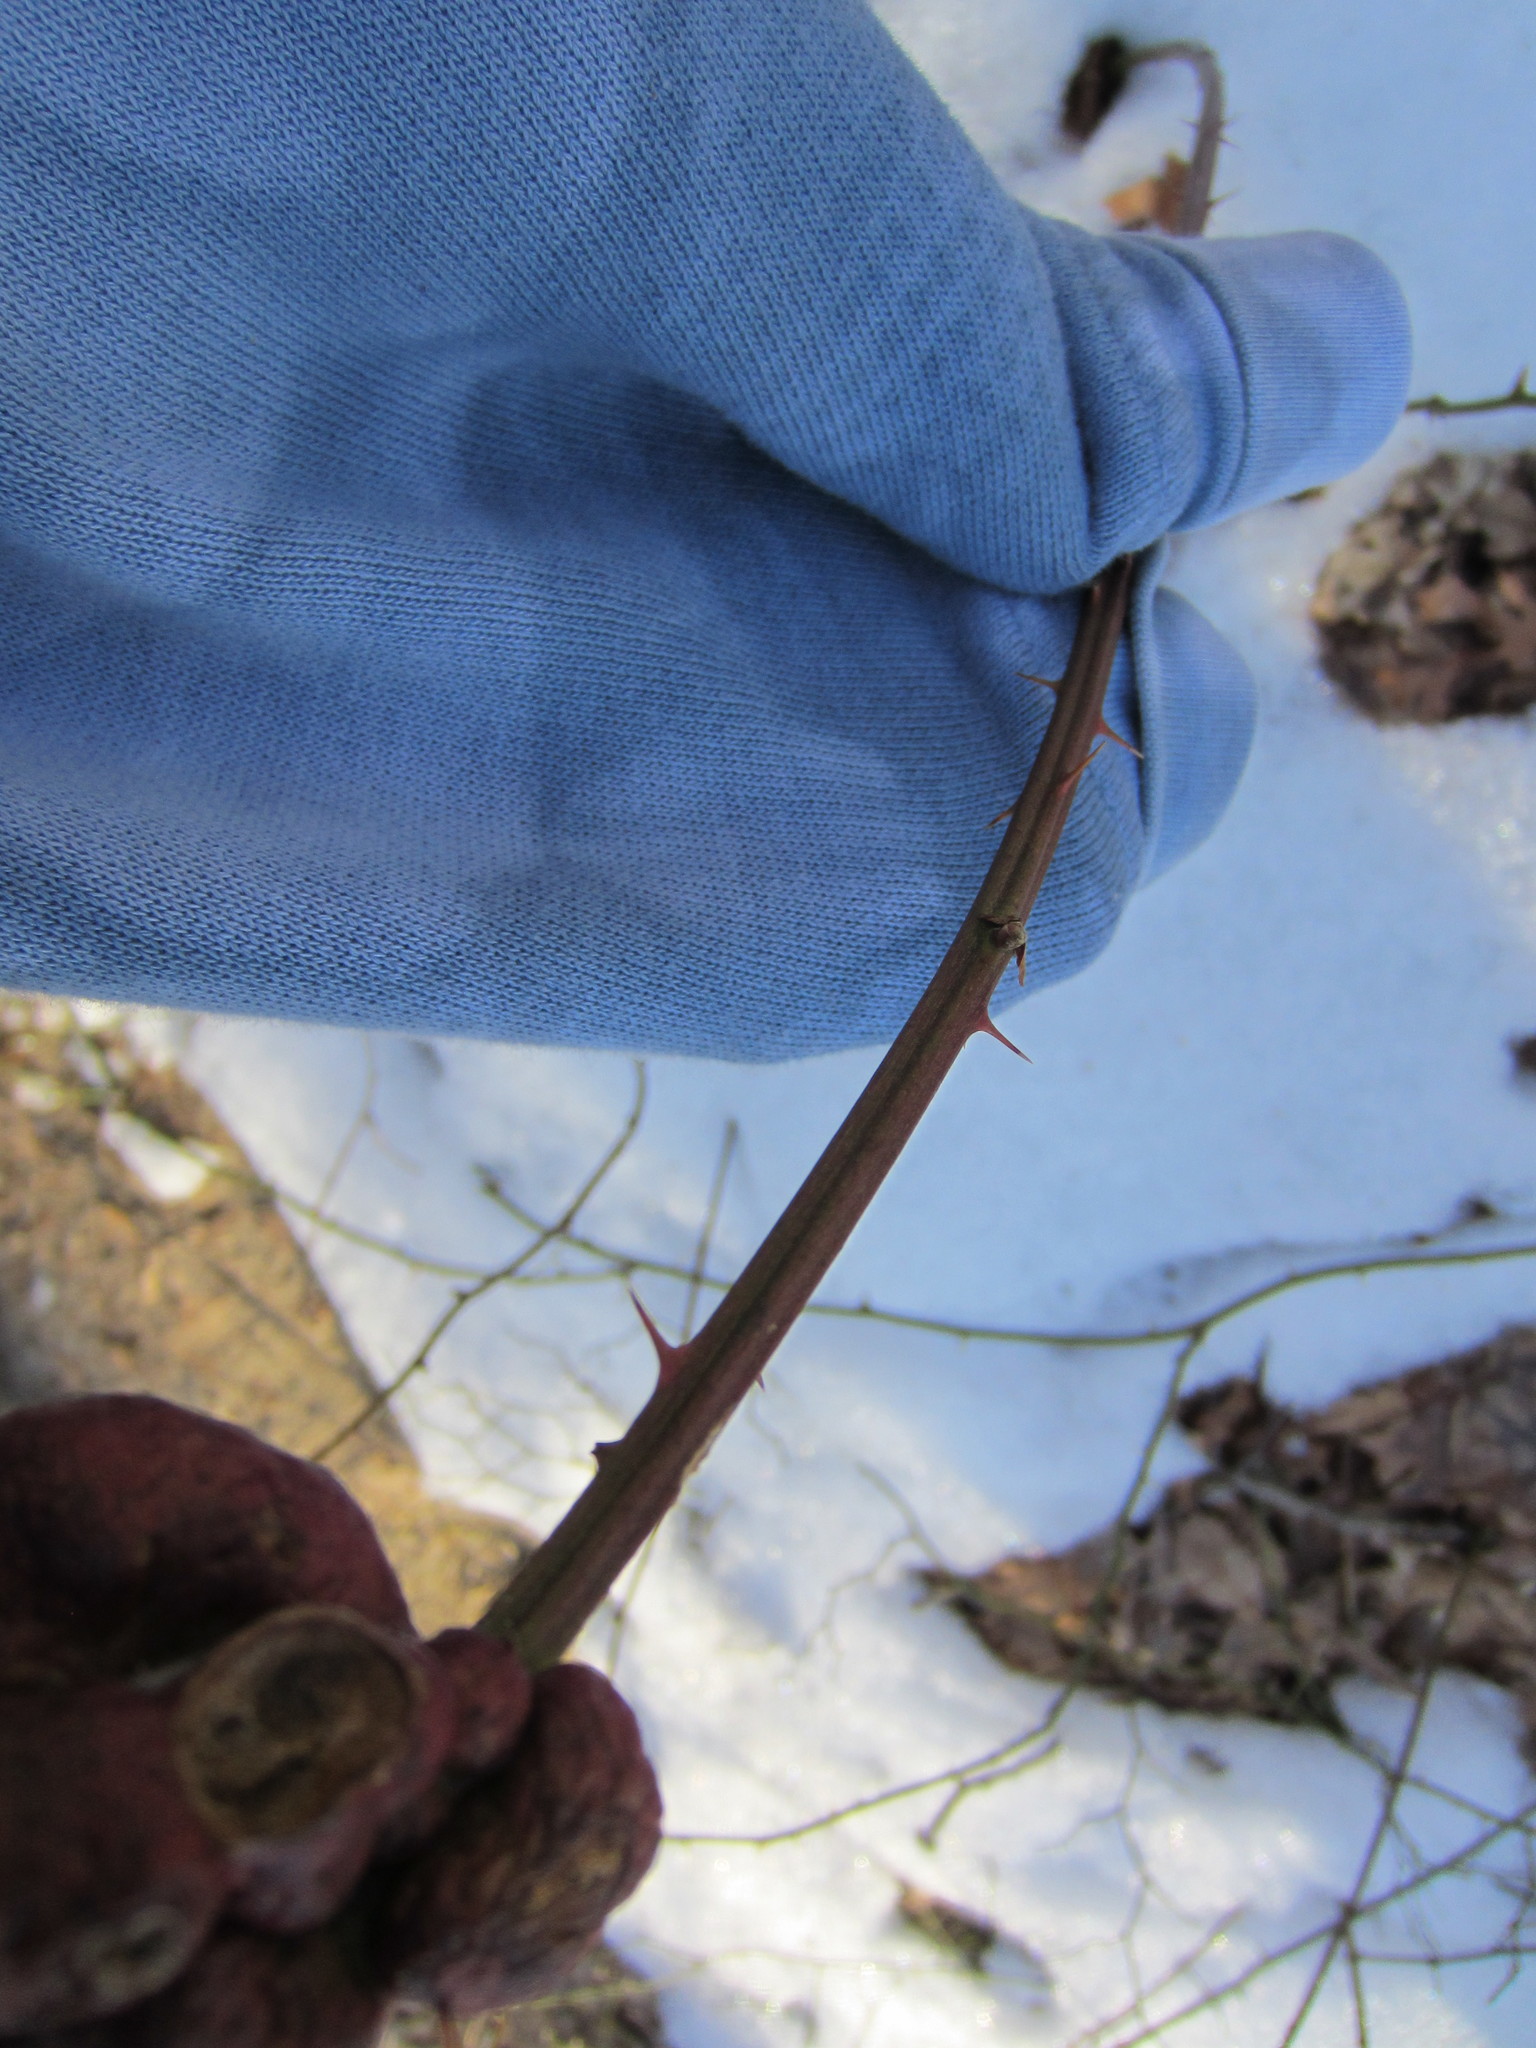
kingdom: Animalia
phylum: Arthropoda
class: Insecta
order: Hymenoptera
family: Cynipidae
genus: Diastrophus
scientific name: Diastrophus
